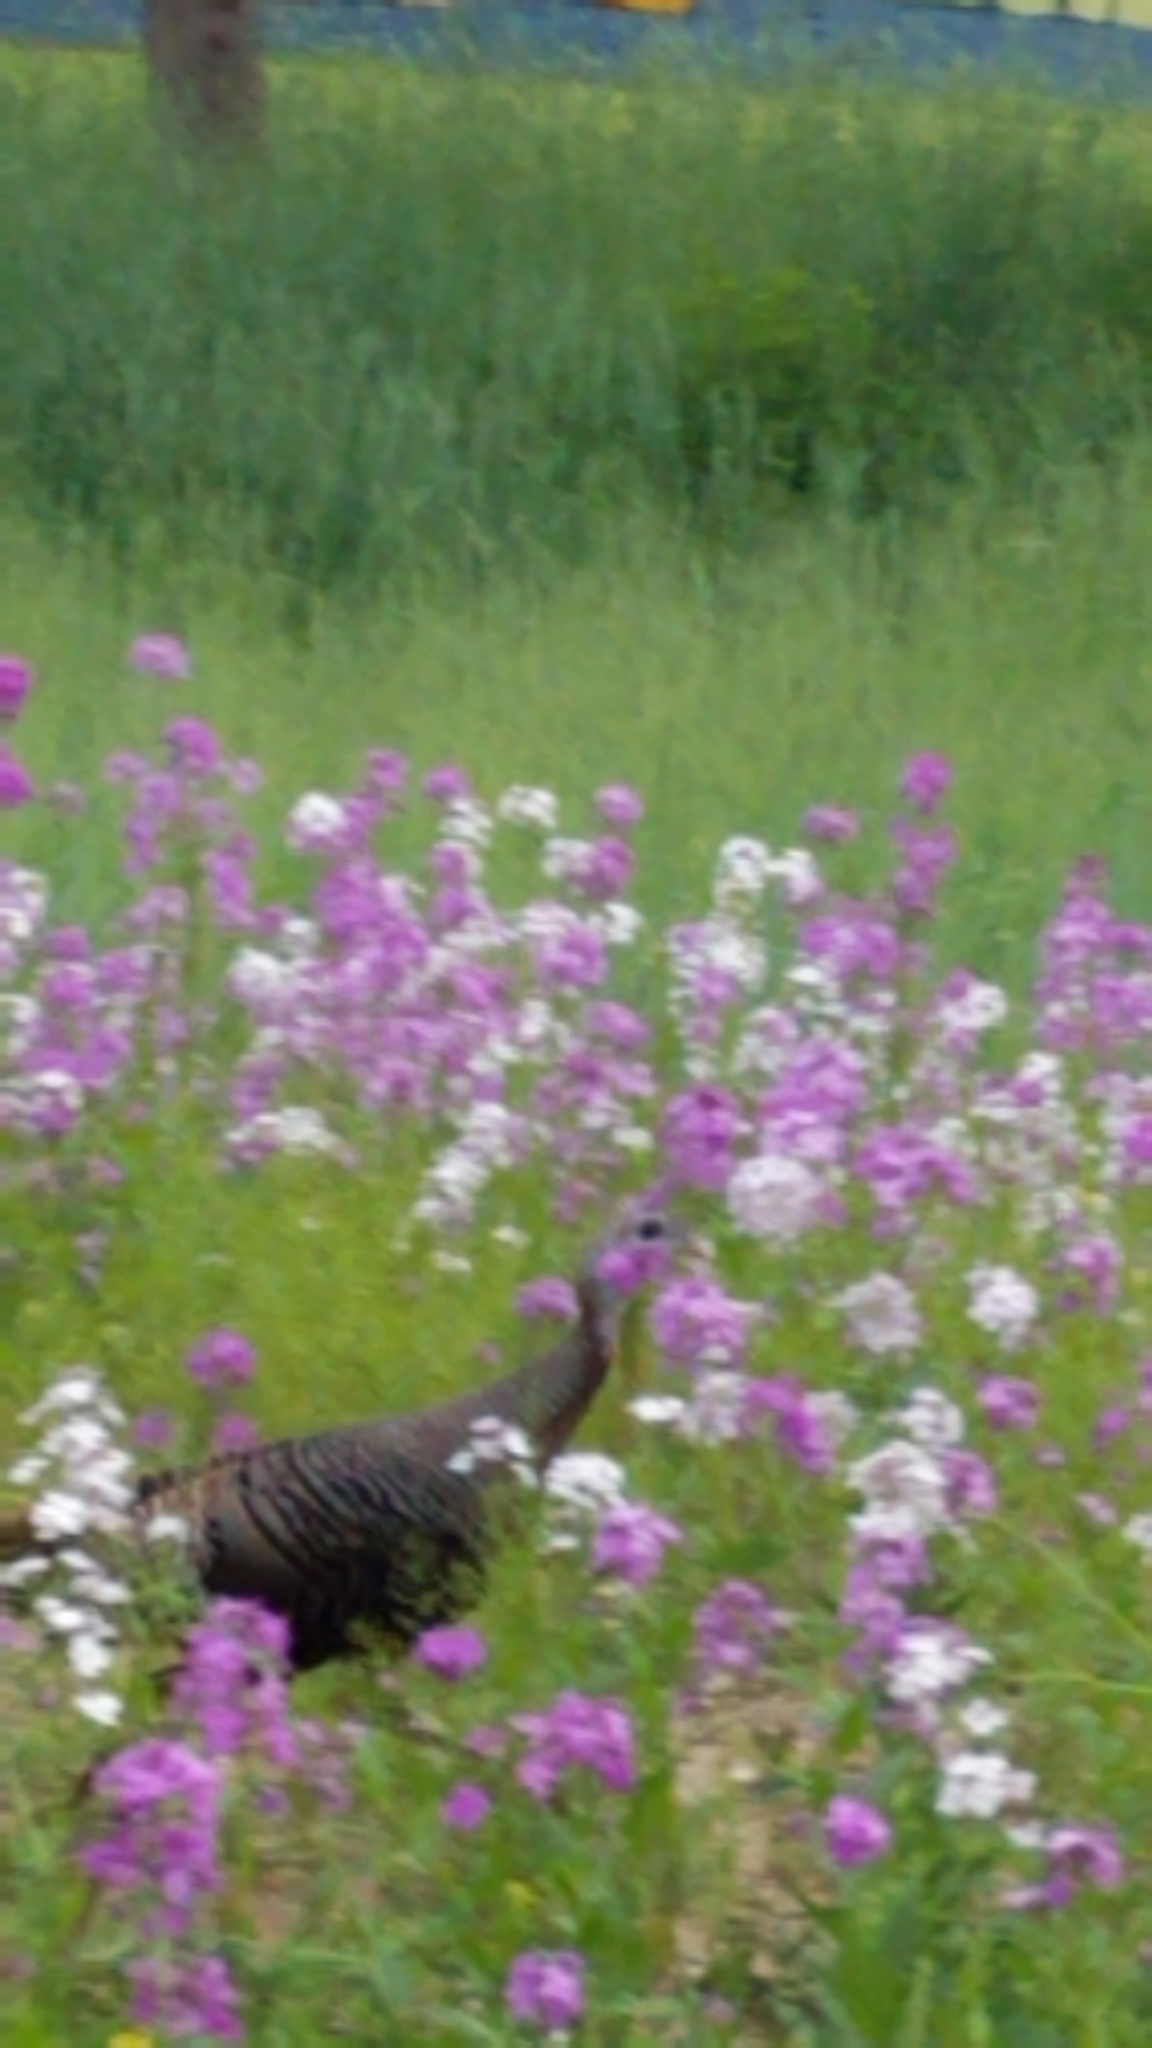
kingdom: Animalia
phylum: Chordata
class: Aves
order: Galliformes
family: Phasianidae
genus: Meleagris
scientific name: Meleagris gallopavo
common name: Wild turkey
